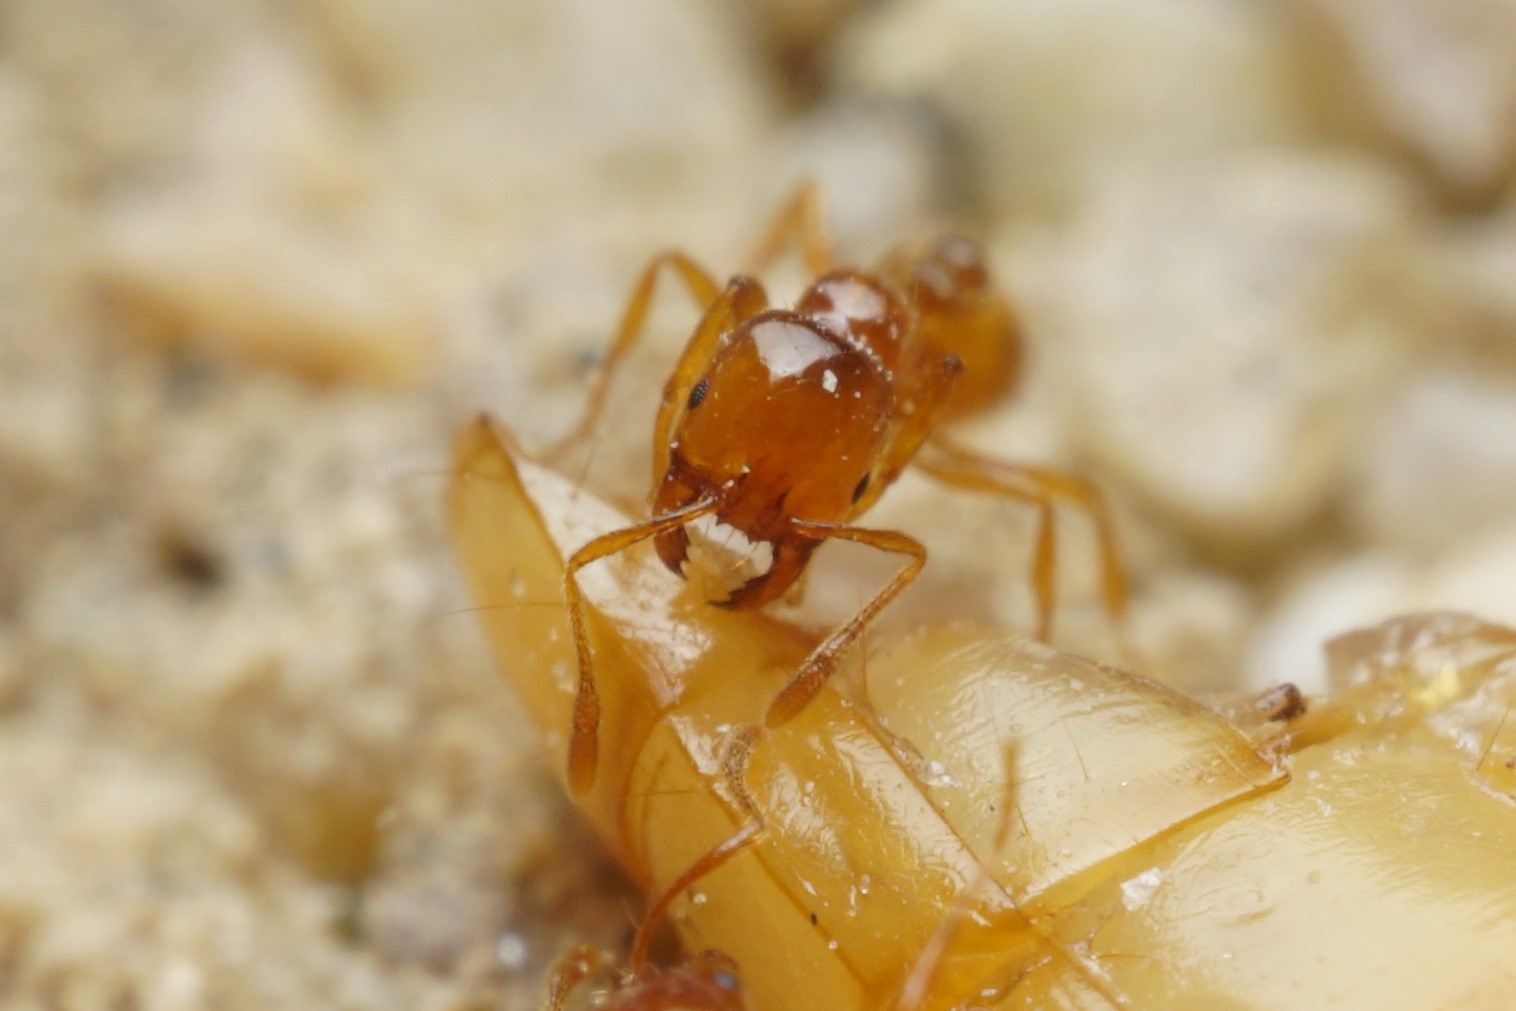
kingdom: Animalia
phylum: Arthropoda
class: Insecta
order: Hymenoptera
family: Formicidae
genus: Solenopsis
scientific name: Solenopsis amblychila
